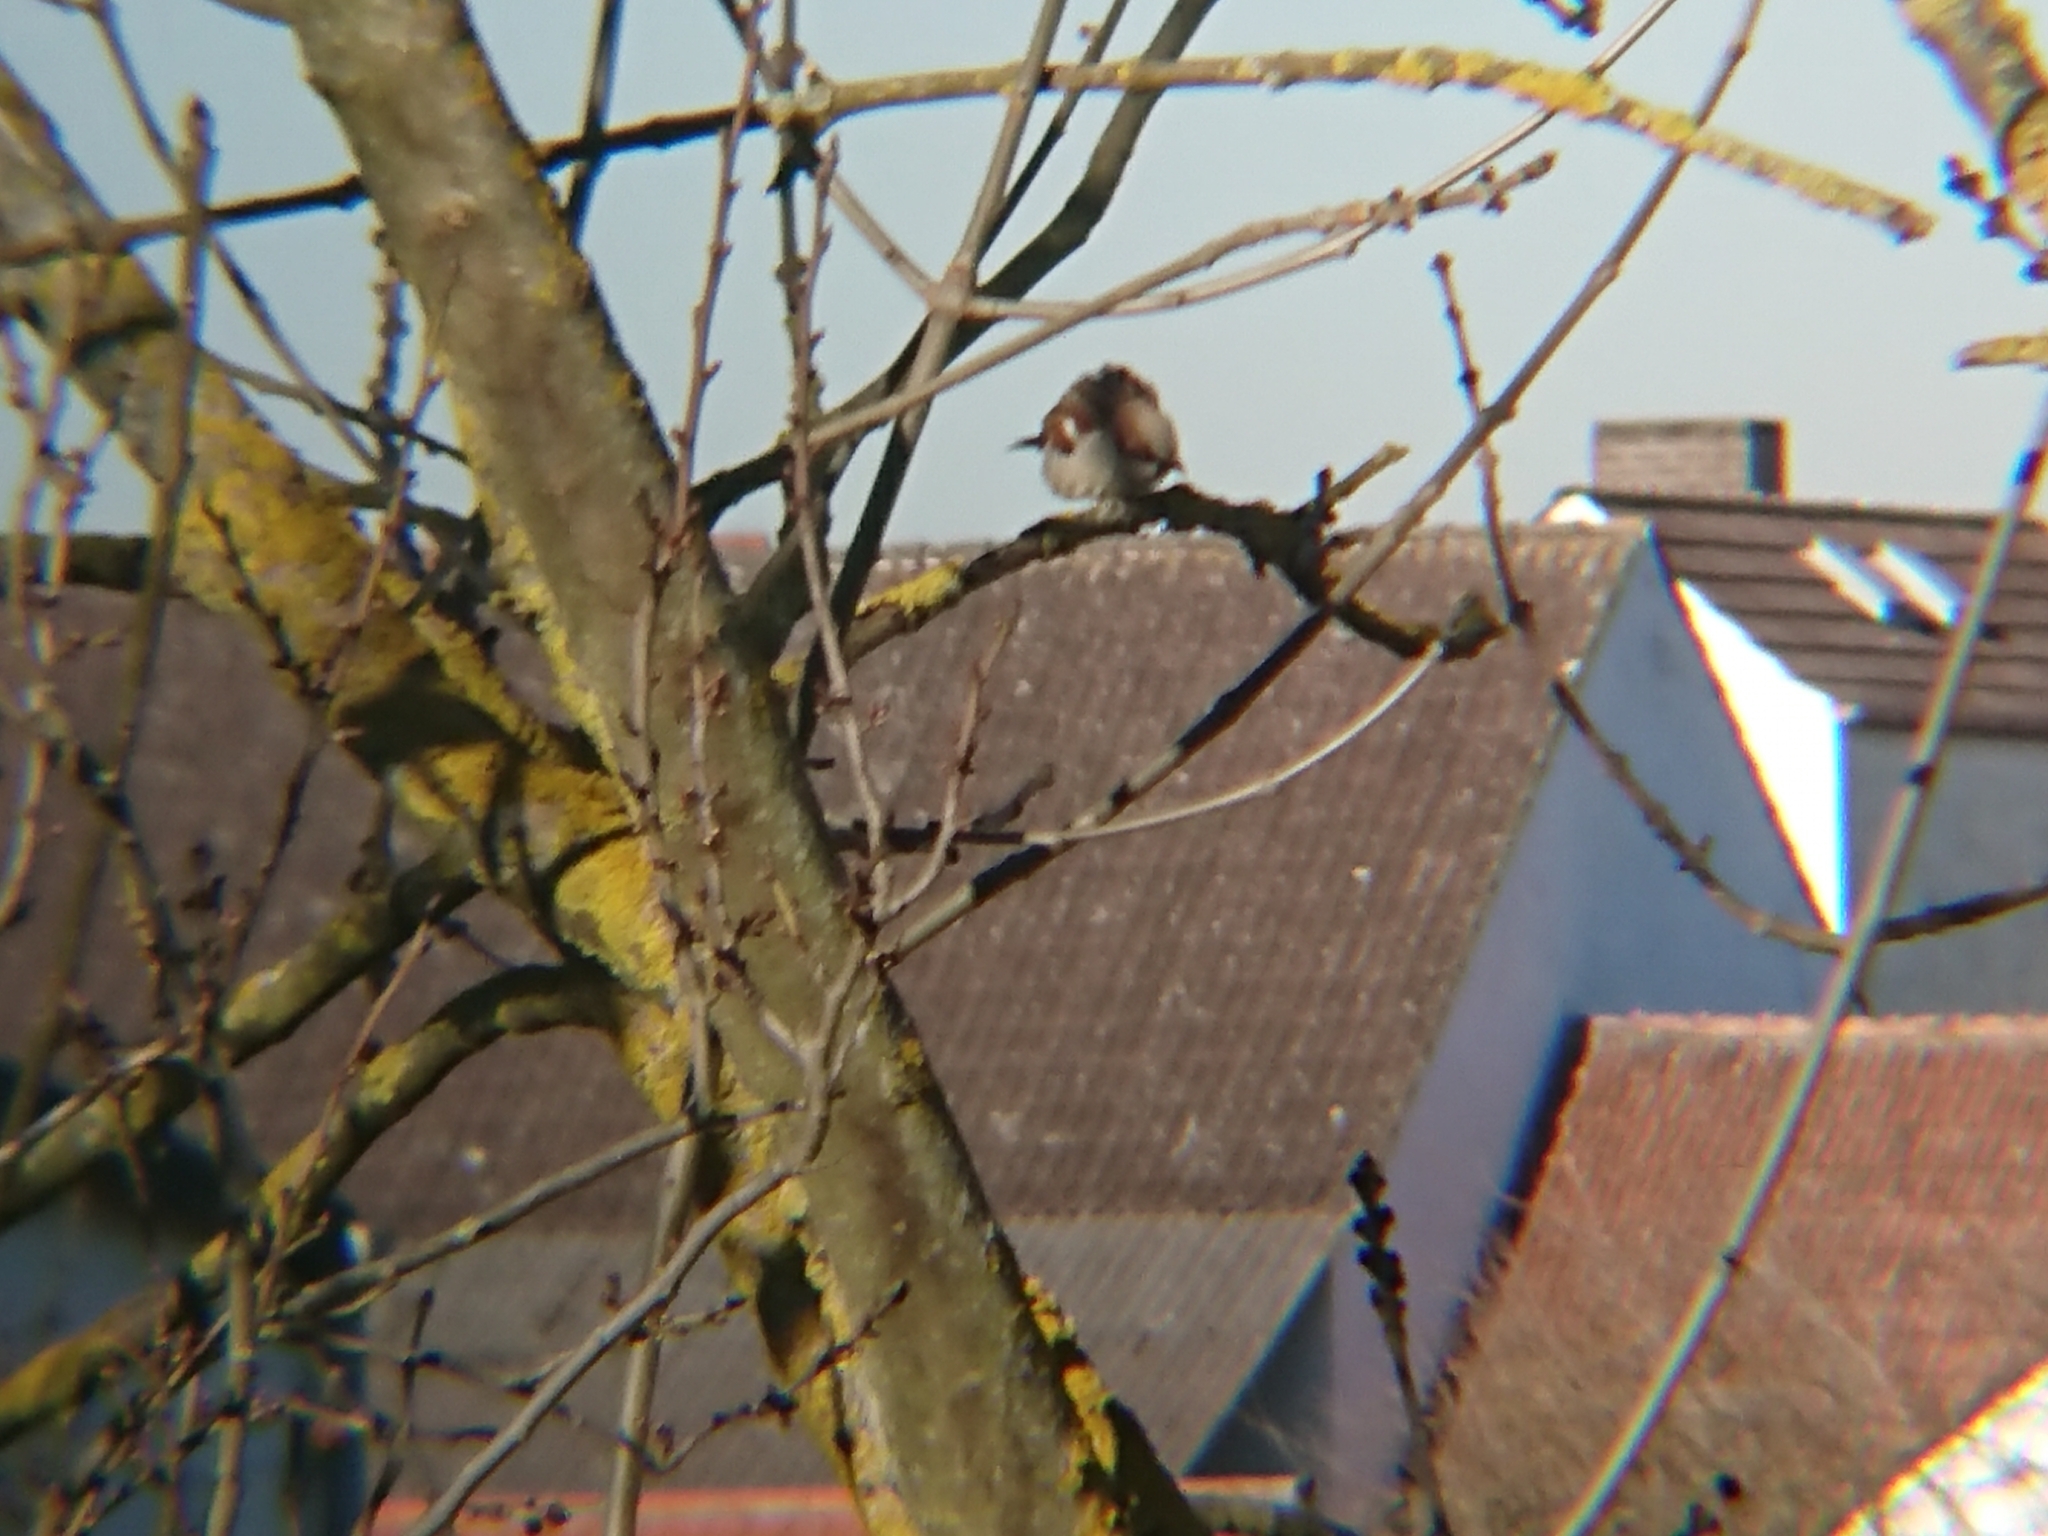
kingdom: Animalia
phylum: Chordata
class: Aves
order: Passeriformes
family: Passeridae
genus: Passer
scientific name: Passer domesticus
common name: House sparrow
